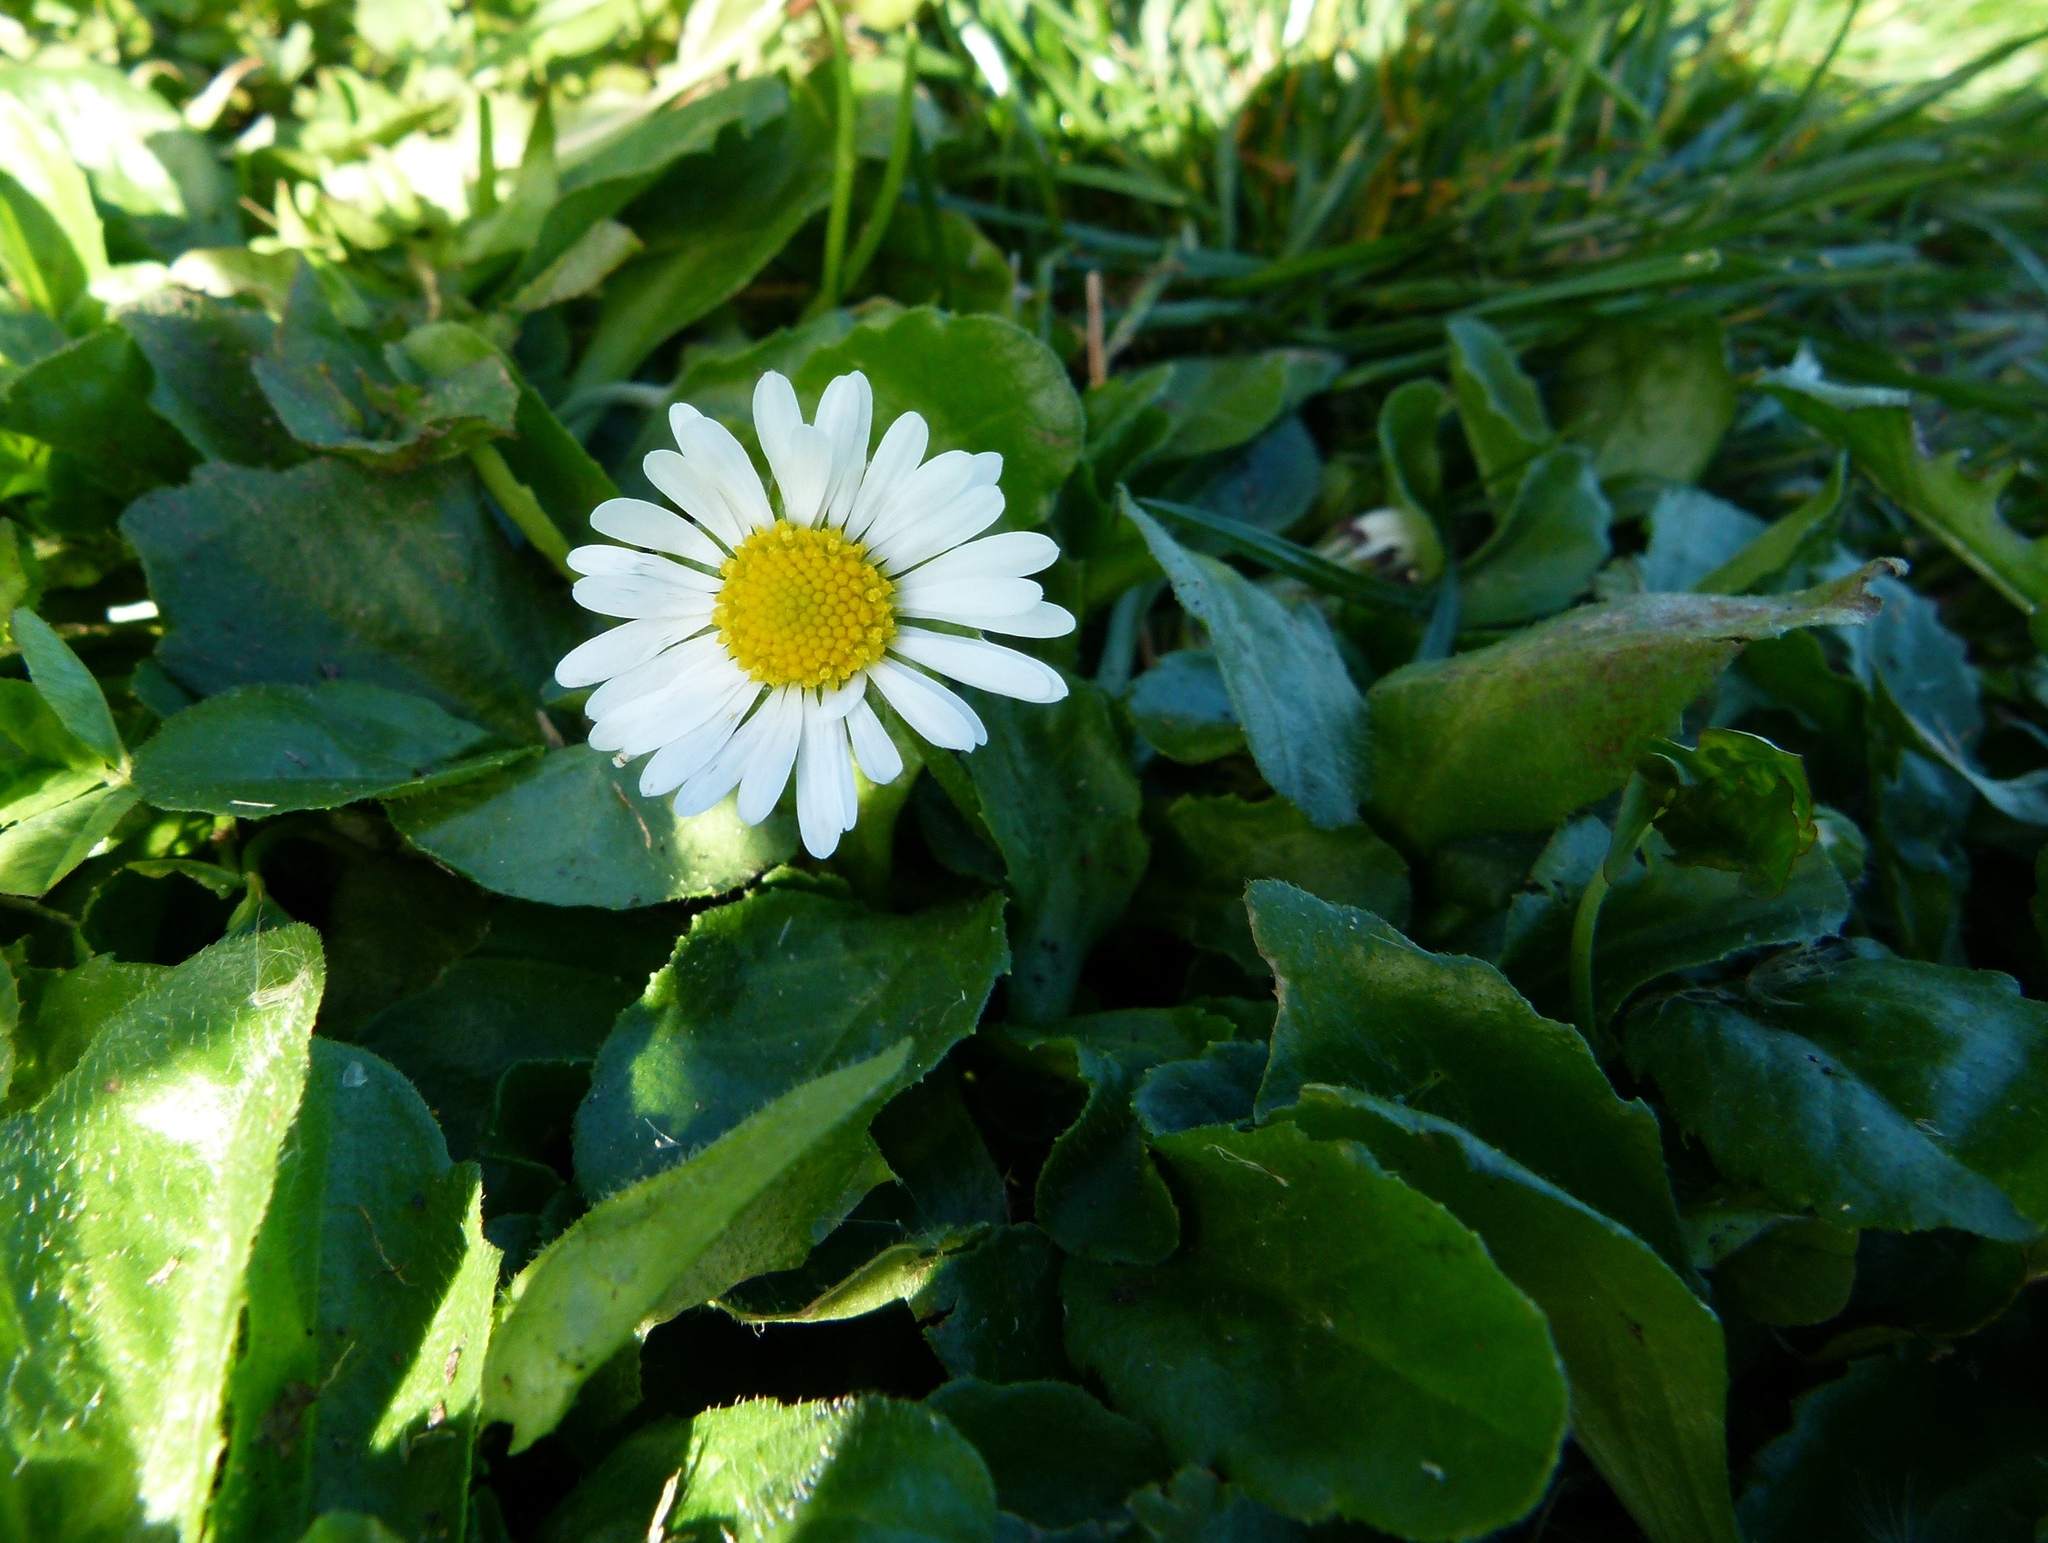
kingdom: Plantae
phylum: Tracheophyta
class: Magnoliopsida
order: Asterales
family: Asteraceae
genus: Bellis
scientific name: Bellis perennis
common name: Lawndaisy
